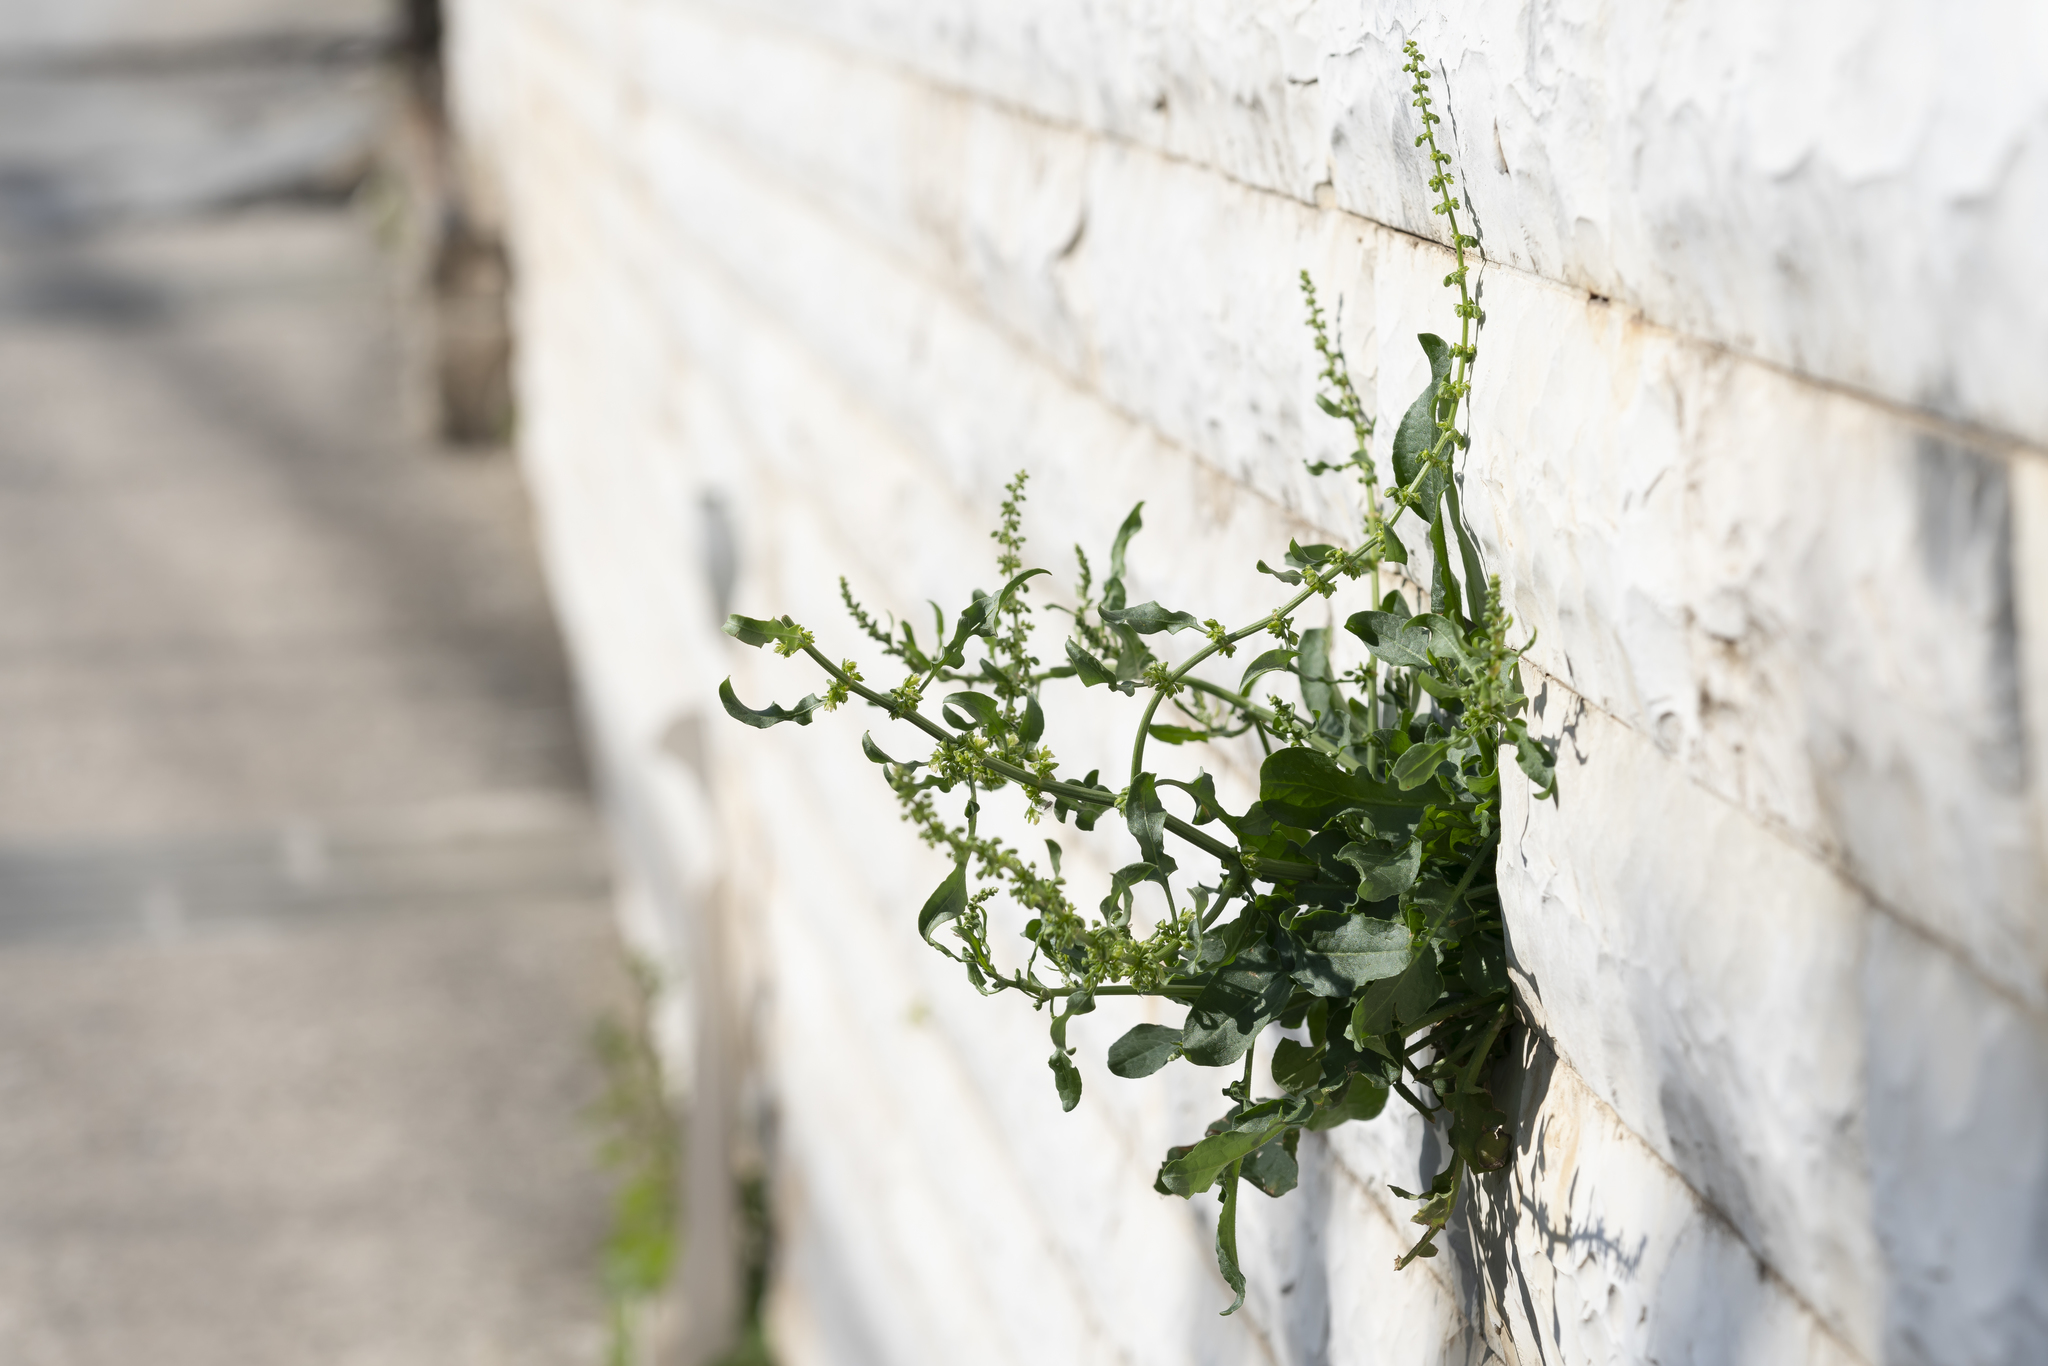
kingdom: Plantae
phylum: Tracheophyta
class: Magnoliopsida
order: Caryophyllales
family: Polygonaceae
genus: Rumex
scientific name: Rumex pulcher
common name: Fiddle dock
